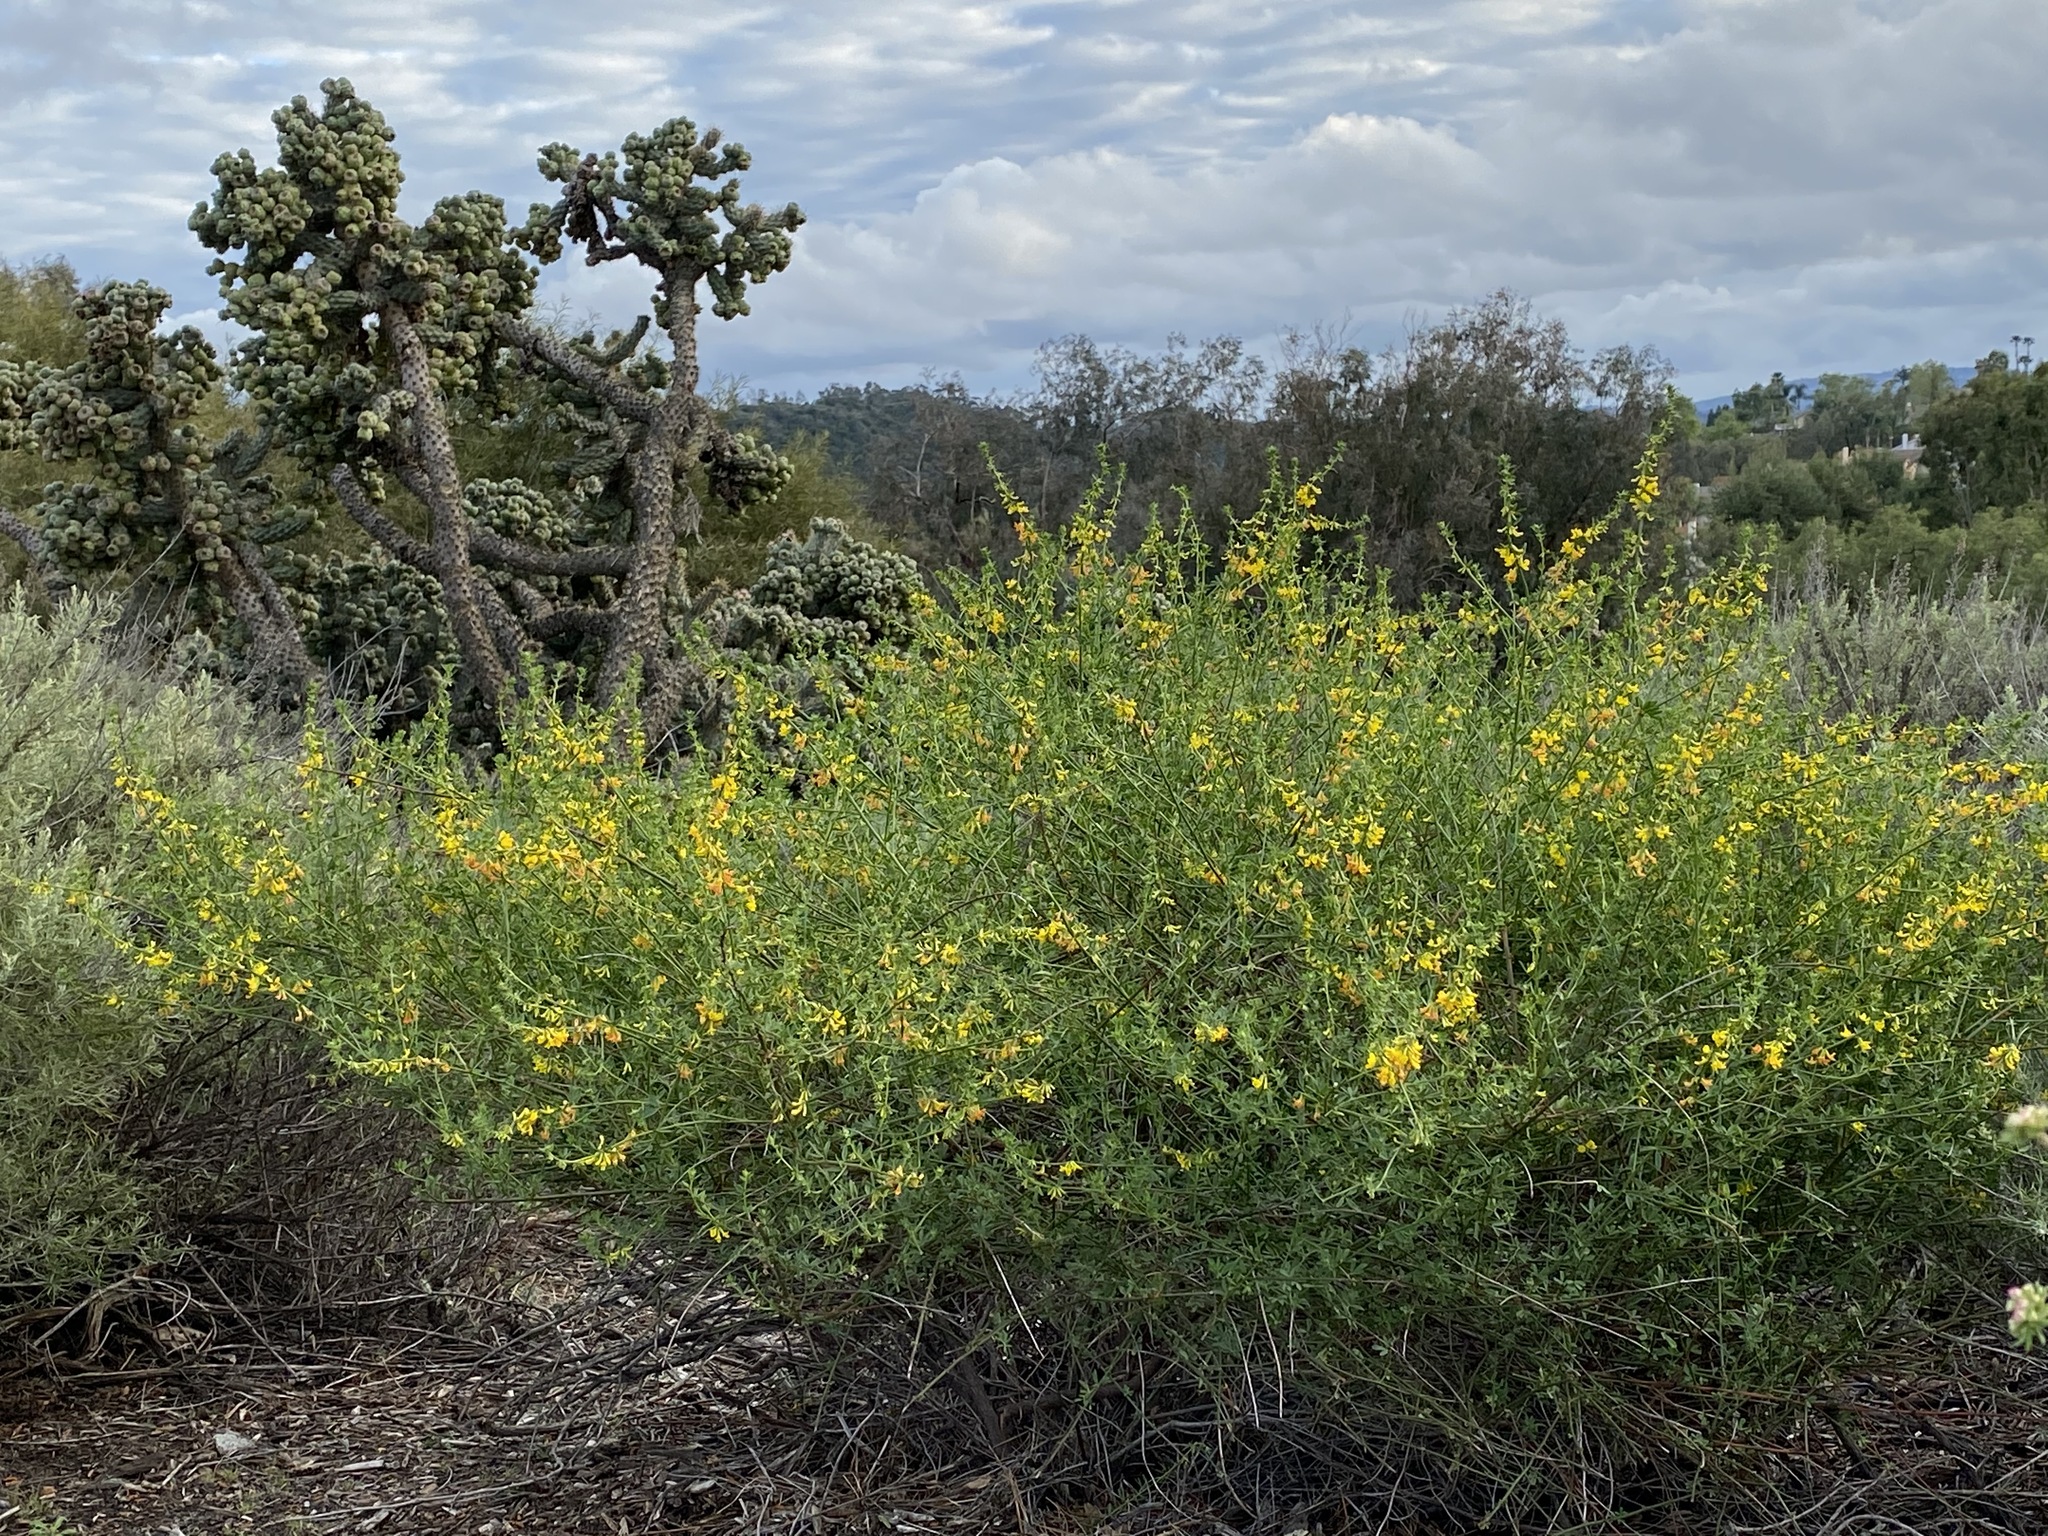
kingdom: Plantae
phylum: Tracheophyta
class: Magnoliopsida
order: Fabales
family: Fabaceae
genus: Acmispon
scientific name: Acmispon glaber
